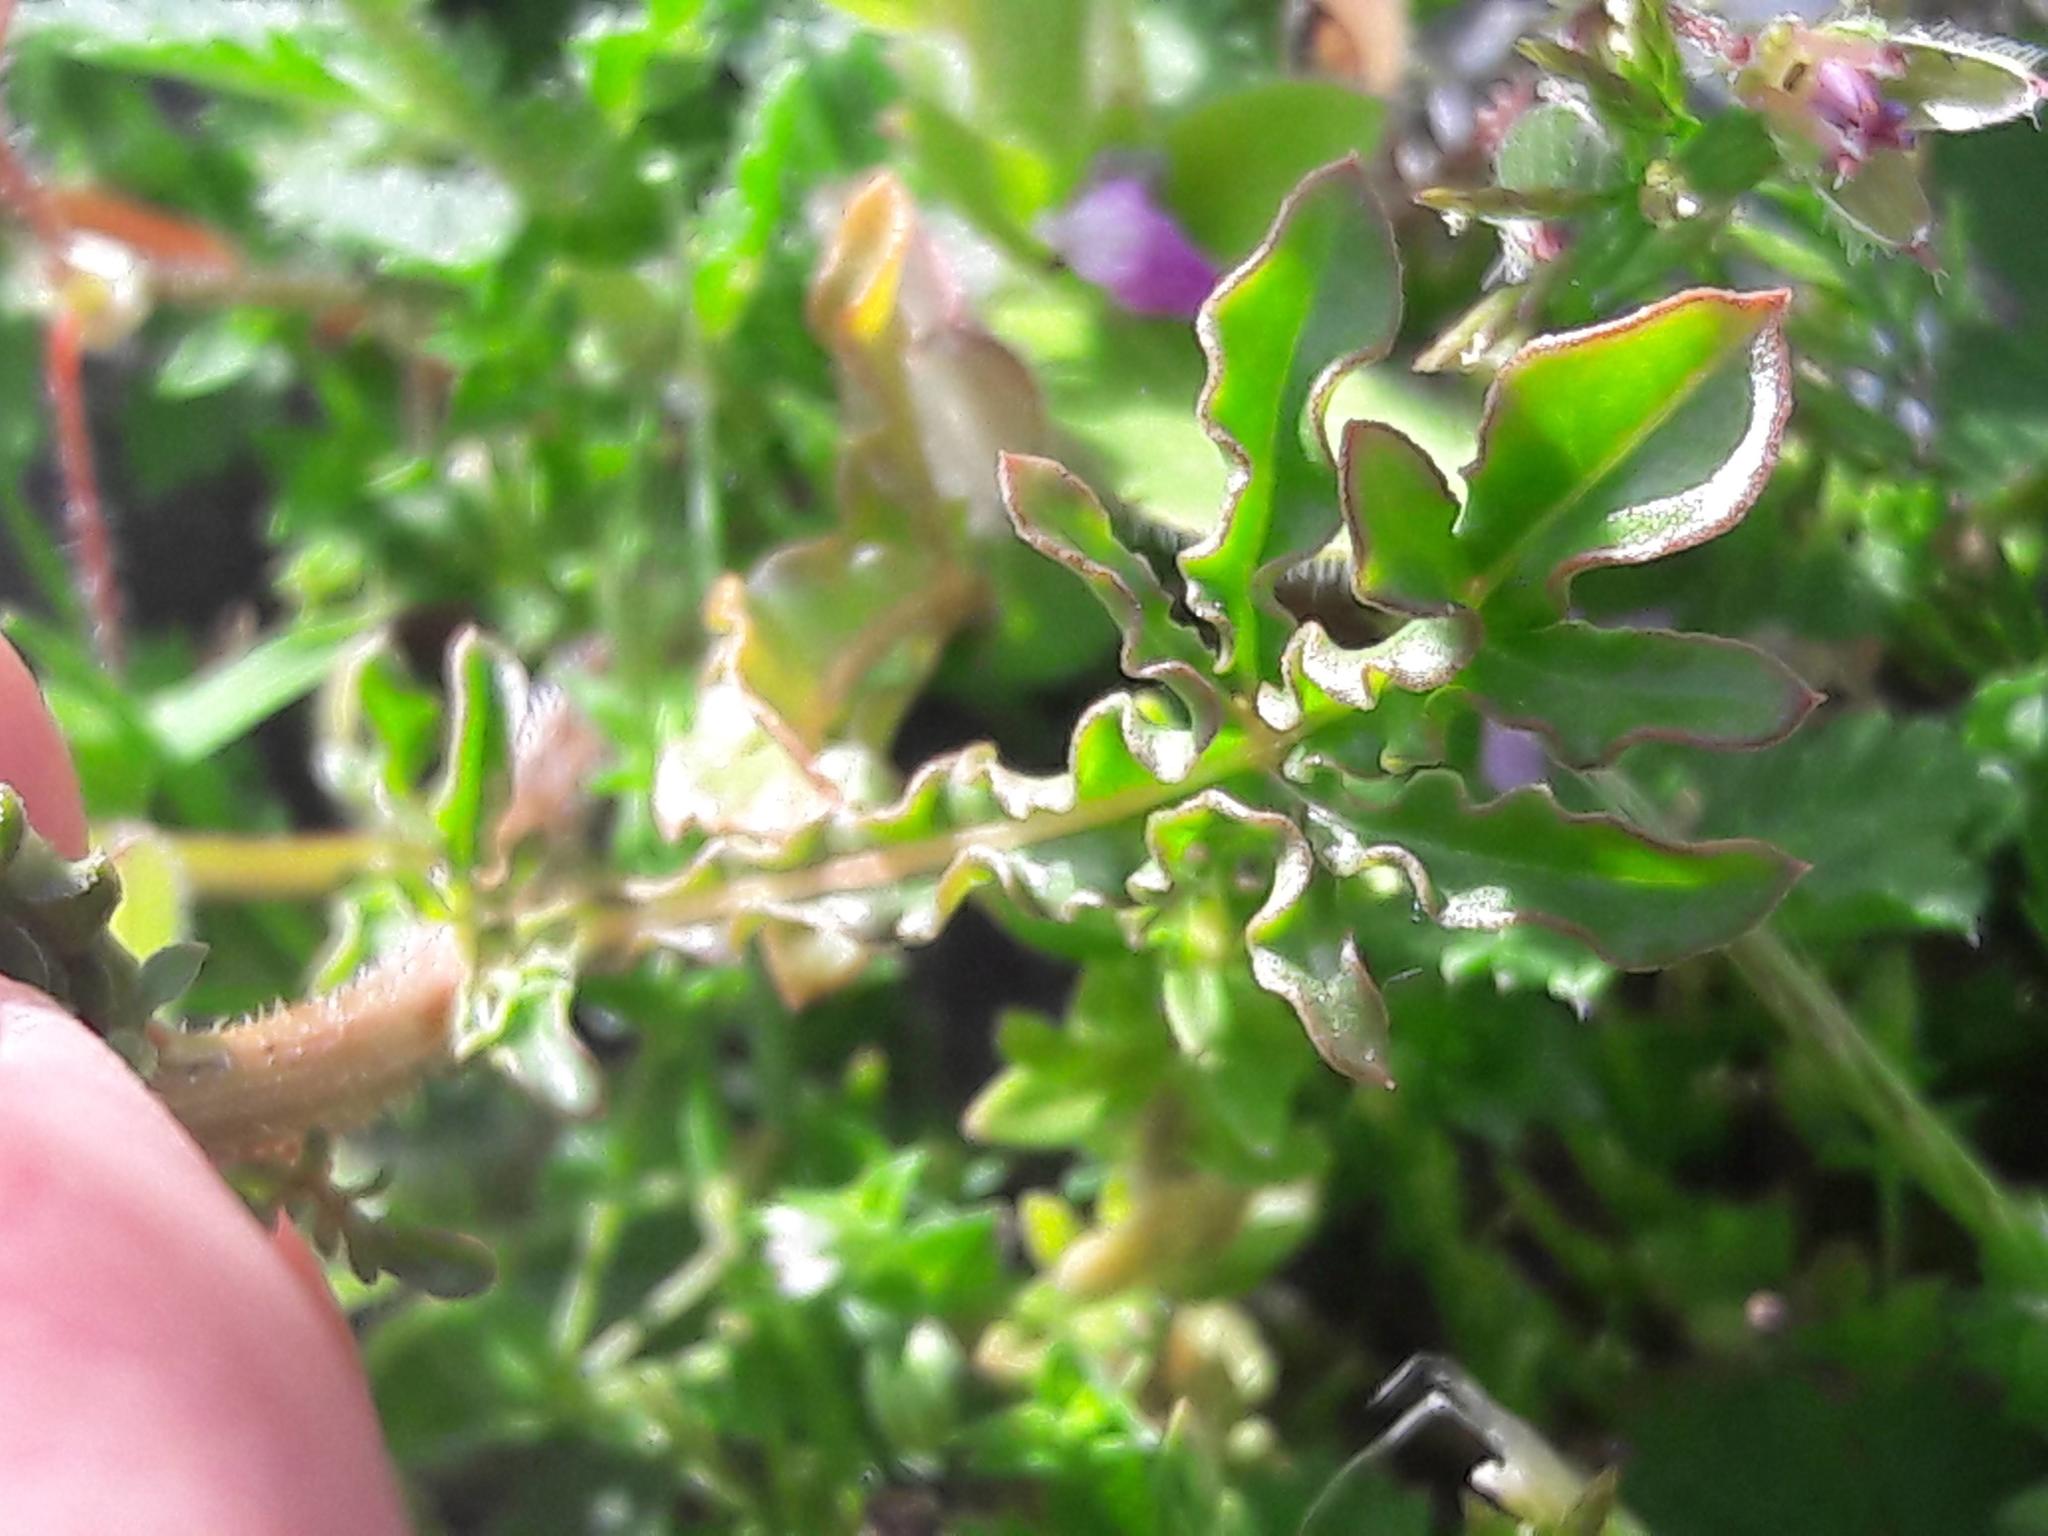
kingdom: Plantae
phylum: Tracheophyta
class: Magnoliopsida
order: Brassicales
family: Resedaceae
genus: Reseda
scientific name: Reseda lutea
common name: Wild mignonette
